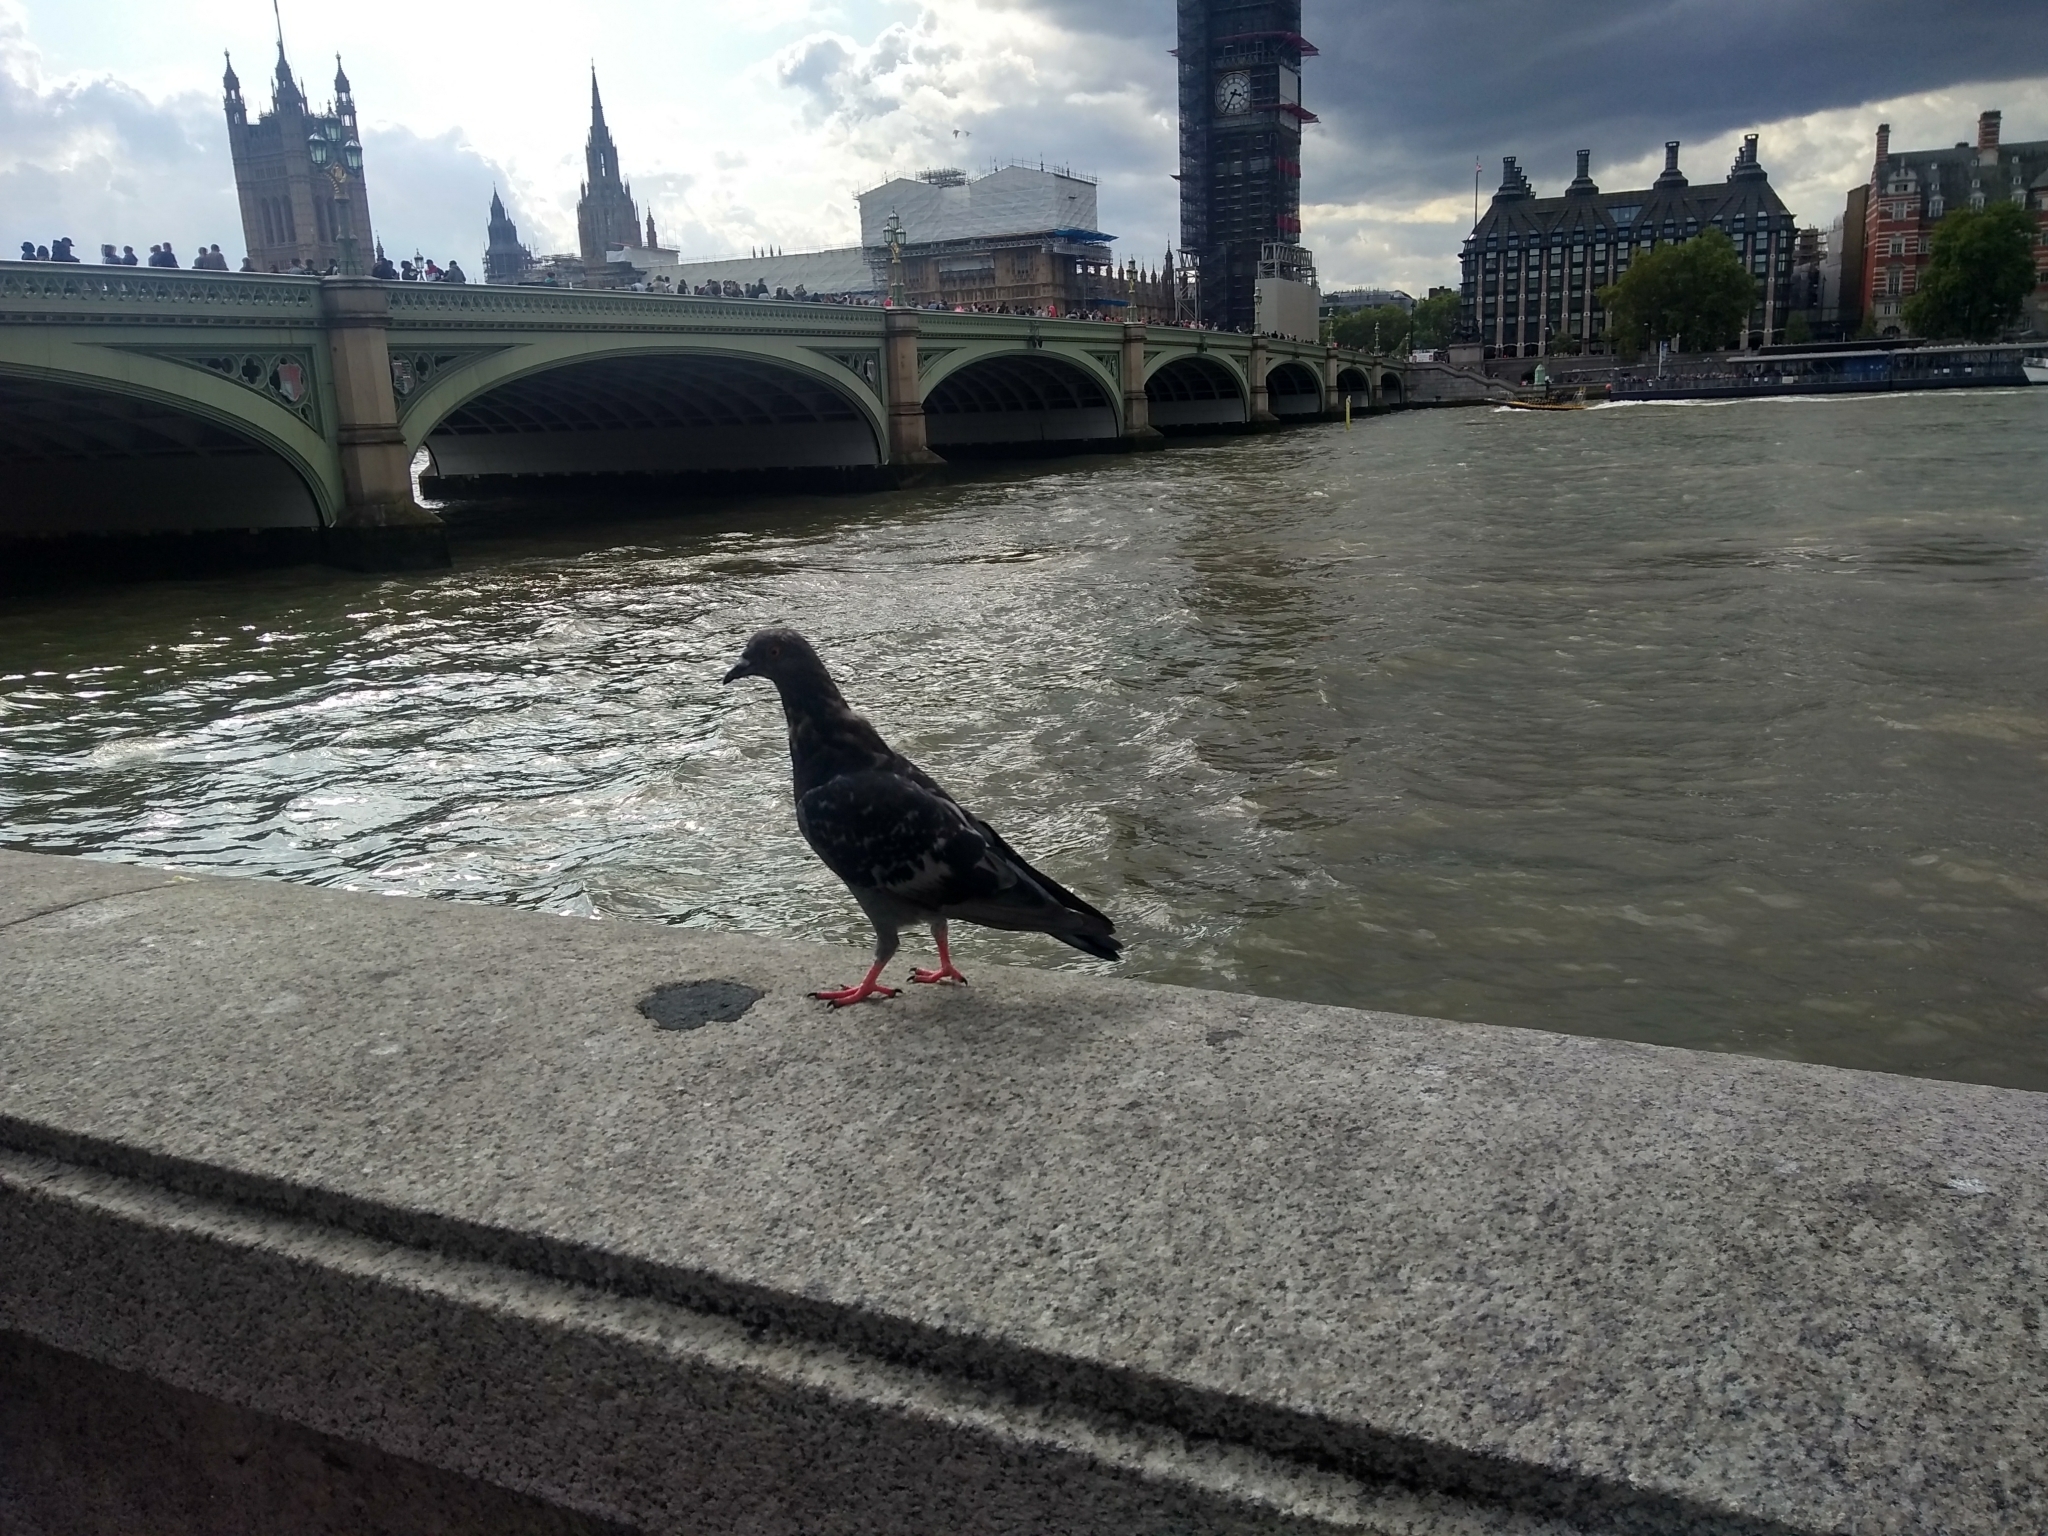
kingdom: Animalia
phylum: Chordata
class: Aves
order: Columbiformes
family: Columbidae
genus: Columba
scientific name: Columba livia
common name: Rock pigeon
